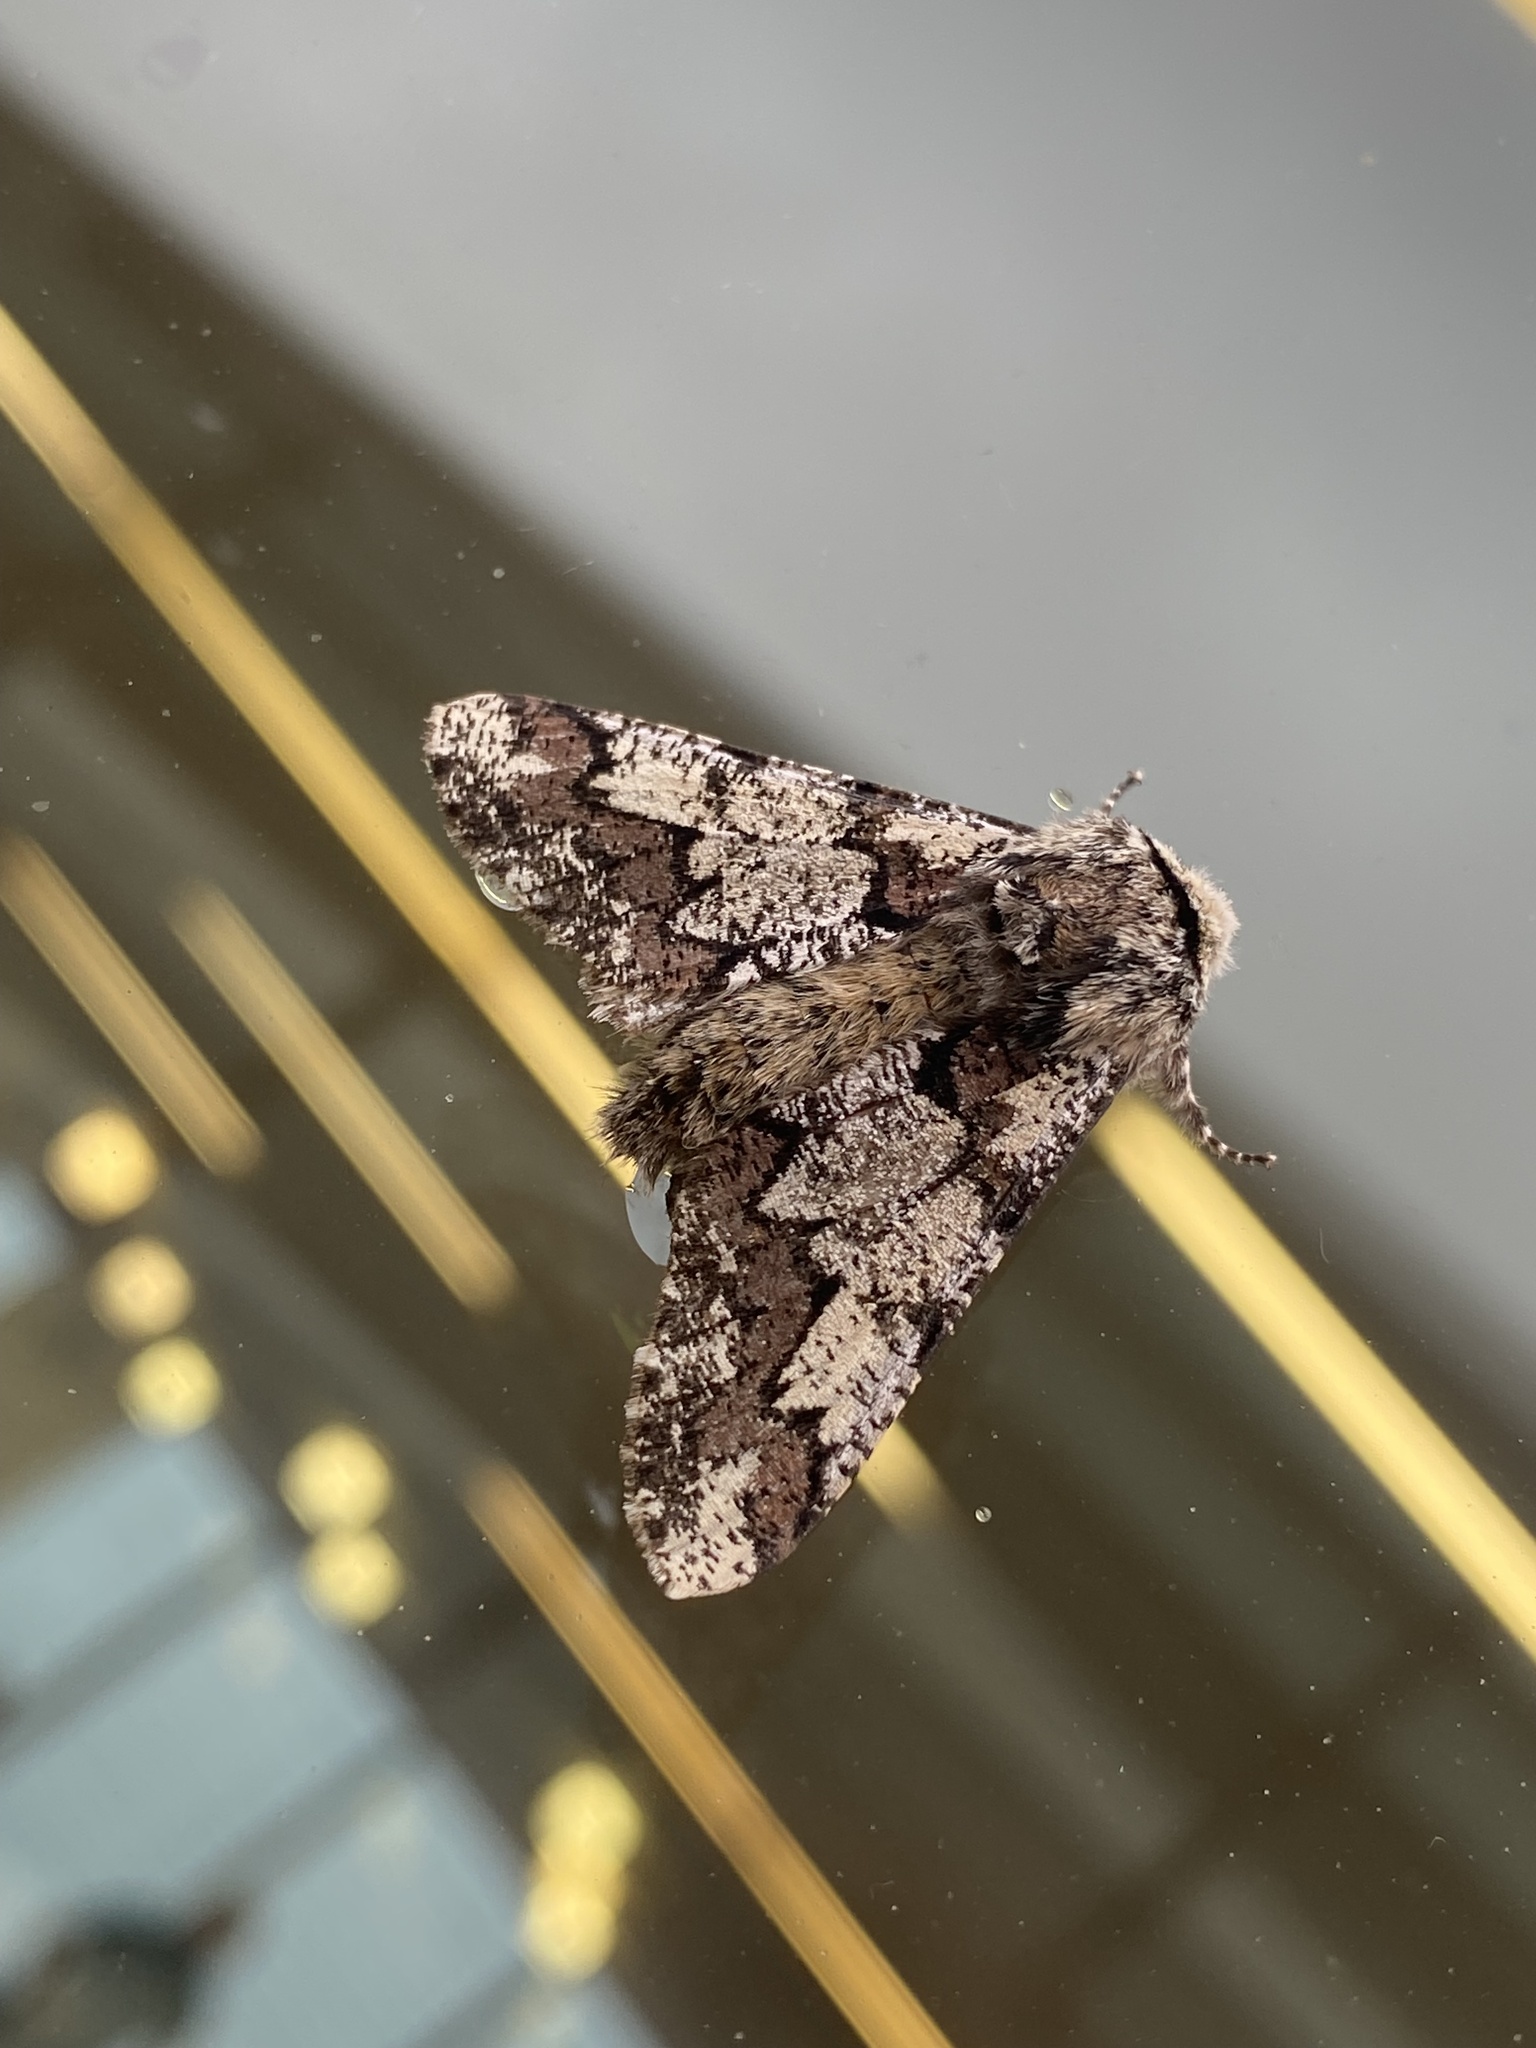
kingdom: Animalia
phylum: Arthropoda
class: Insecta
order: Lepidoptera
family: Geometridae
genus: Biston
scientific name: Biston strataria
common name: Oak beauty
